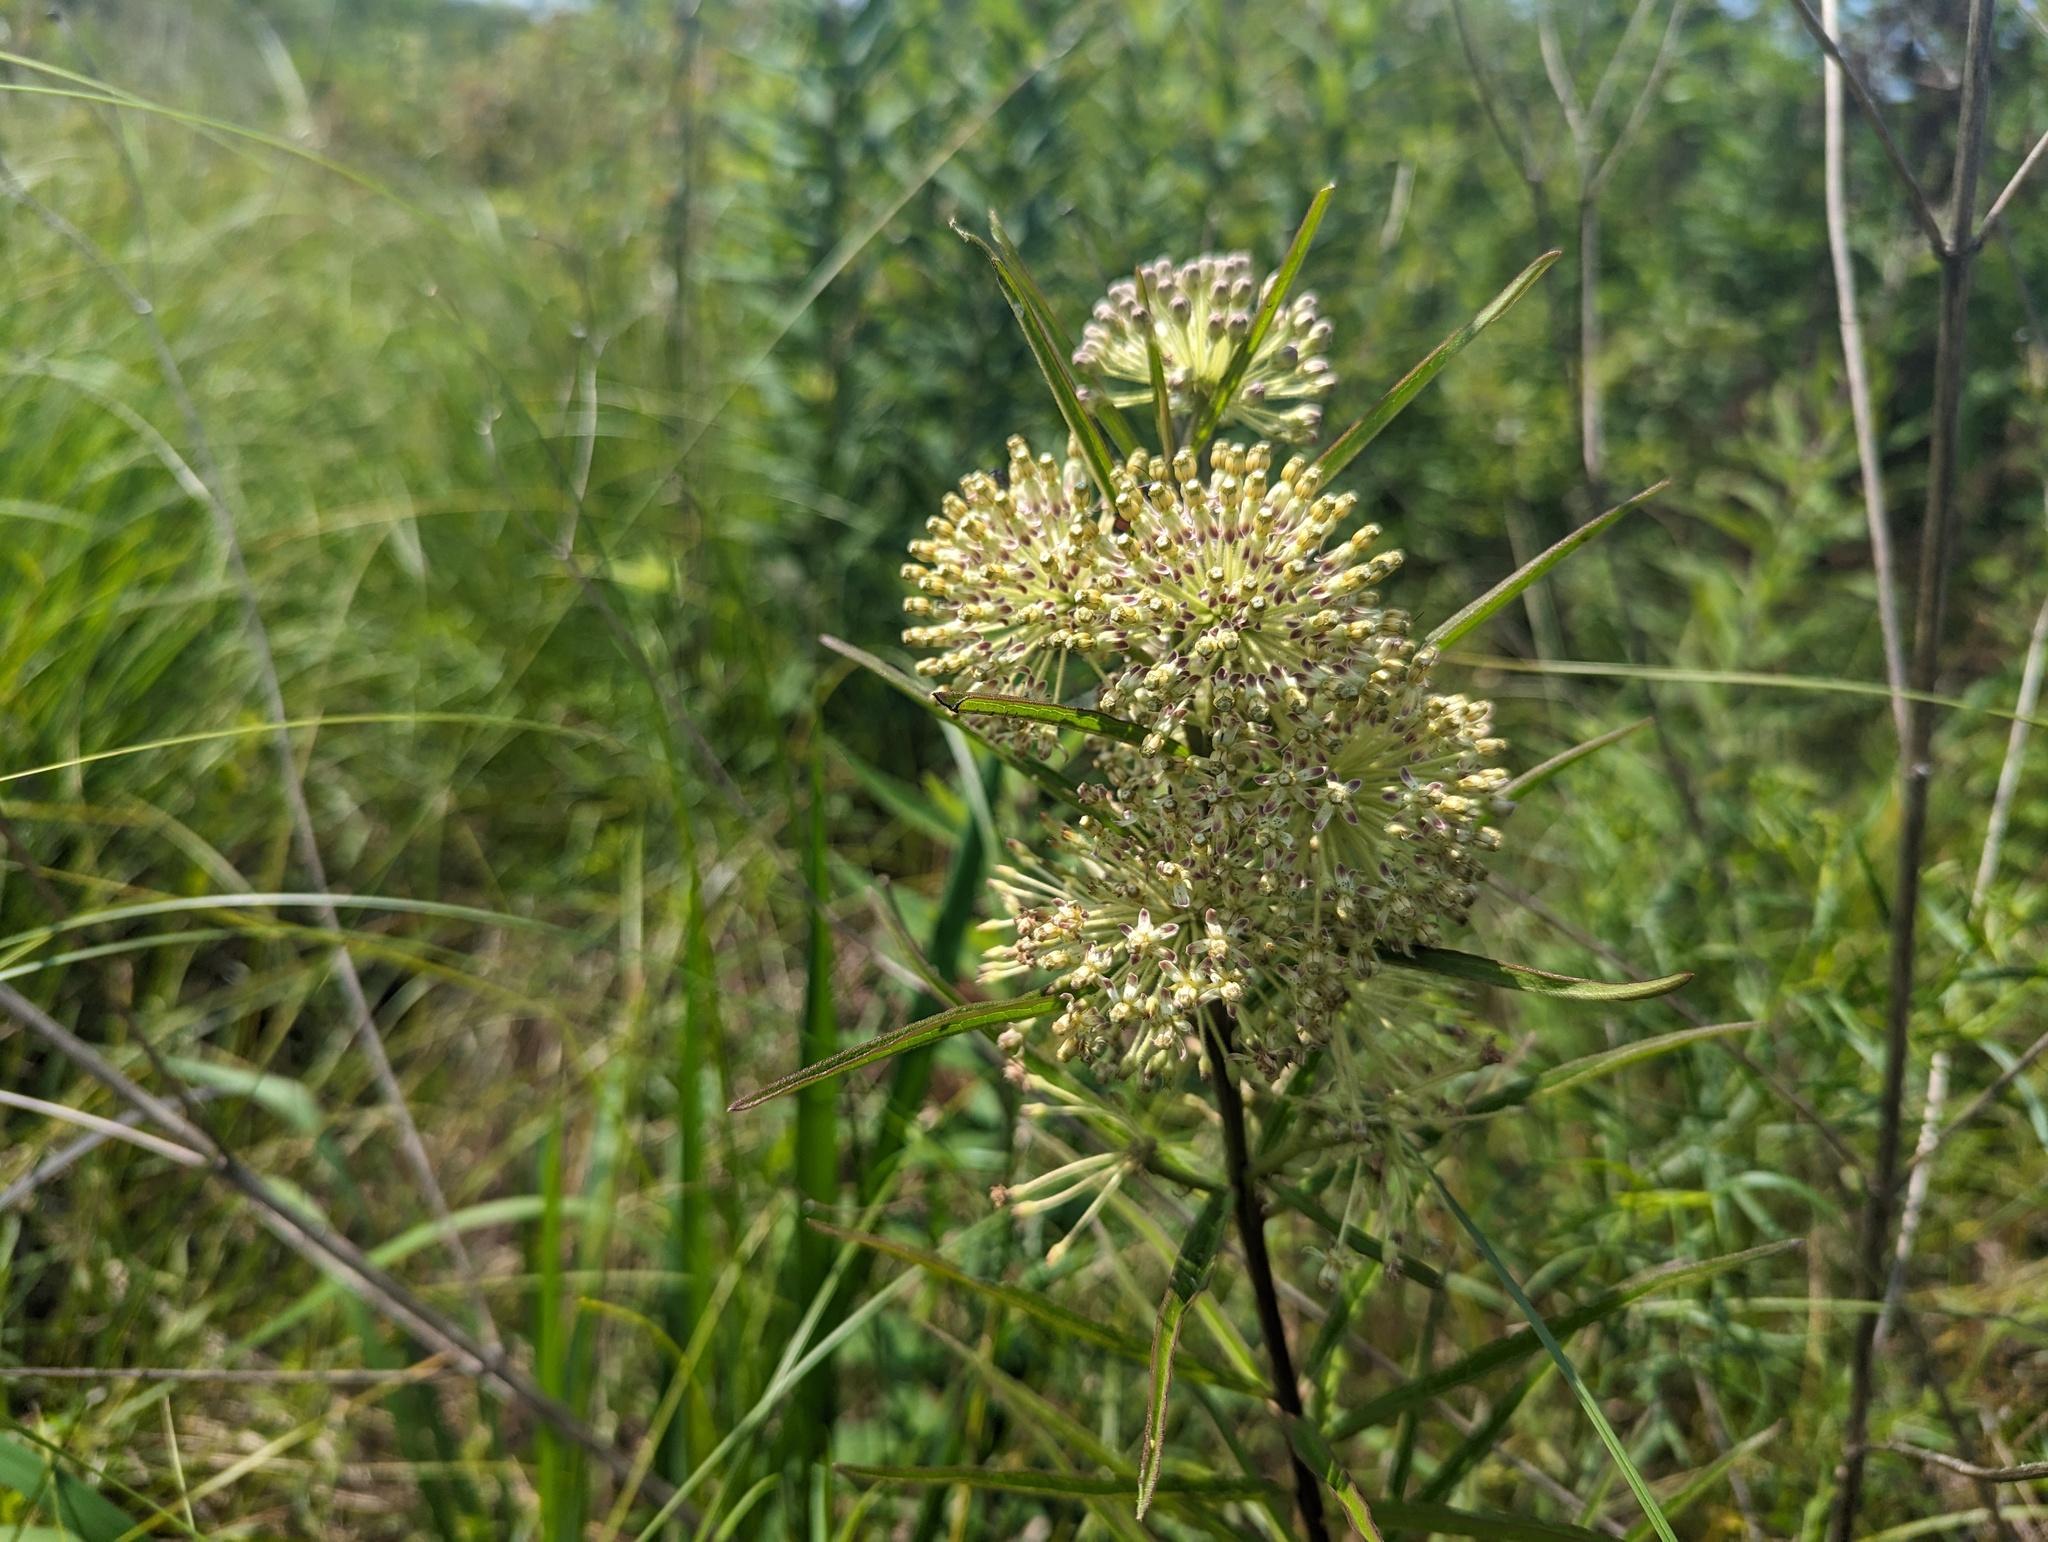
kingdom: Plantae
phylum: Tracheophyta
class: Magnoliopsida
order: Gentianales
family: Apocynaceae
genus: Asclepias
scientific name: Asclepias hirtella
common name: Prairie milkweed
